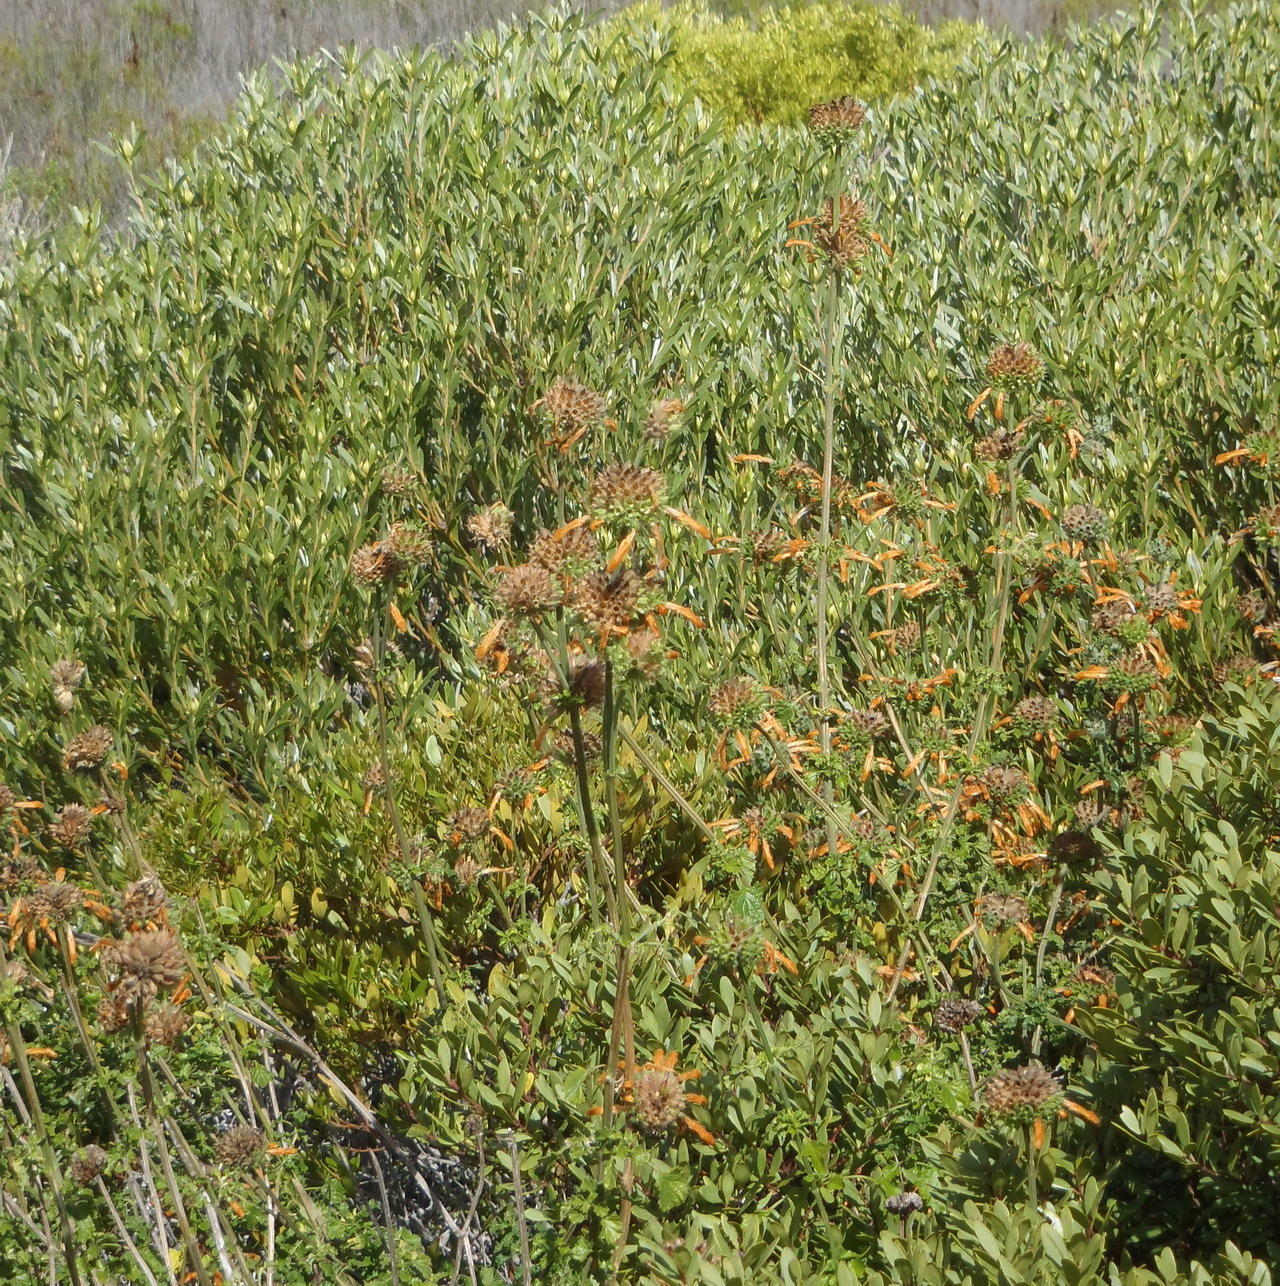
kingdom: Plantae
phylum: Tracheophyta
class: Magnoliopsida
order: Lamiales
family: Lamiaceae
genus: Leonotis
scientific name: Leonotis ocymifolia
